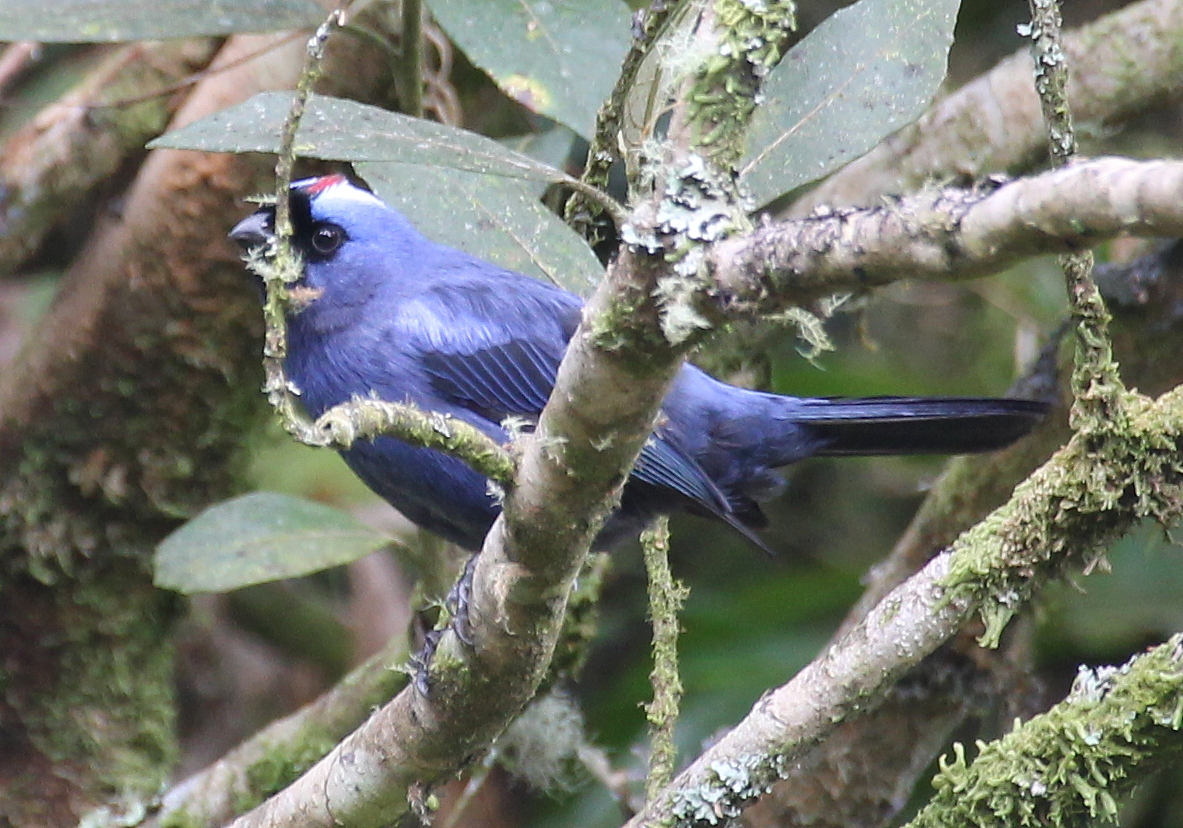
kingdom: Animalia
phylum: Chordata
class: Aves
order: Passeriformes
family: Thraupidae
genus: Stephanophorus
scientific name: Stephanophorus diadematus
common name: Diademed tanager
